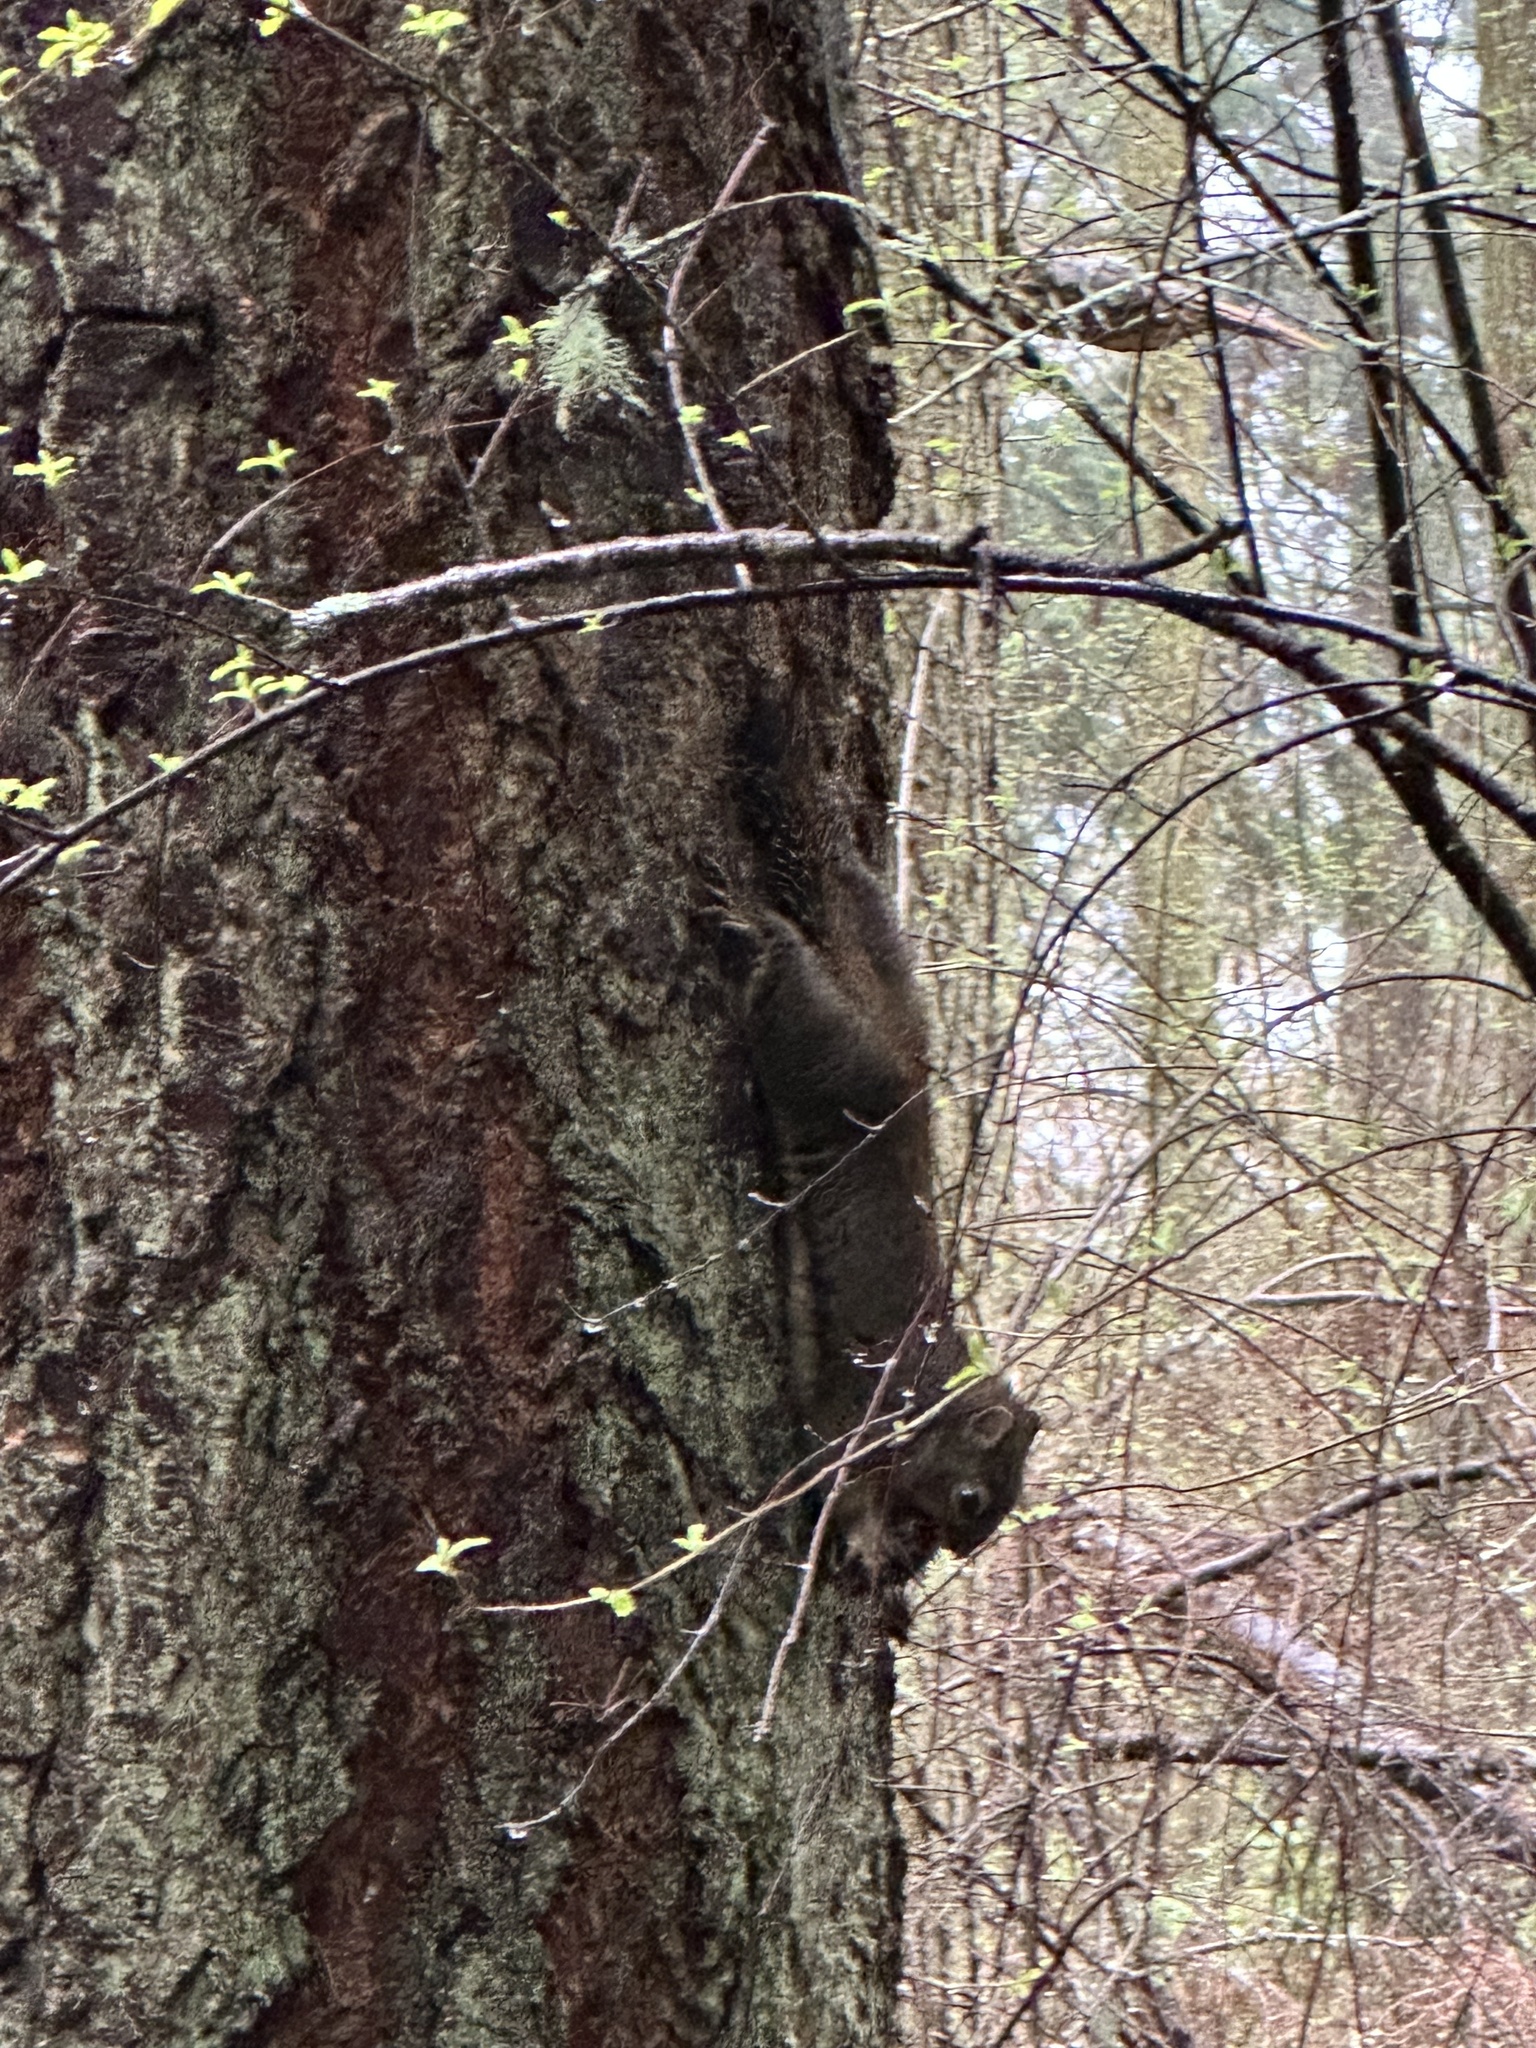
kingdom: Animalia
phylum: Chordata
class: Mammalia
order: Rodentia
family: Sciuridae
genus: Tamiasciurus
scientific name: Tamiasciurus douglasii
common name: Douglas's squirrel
